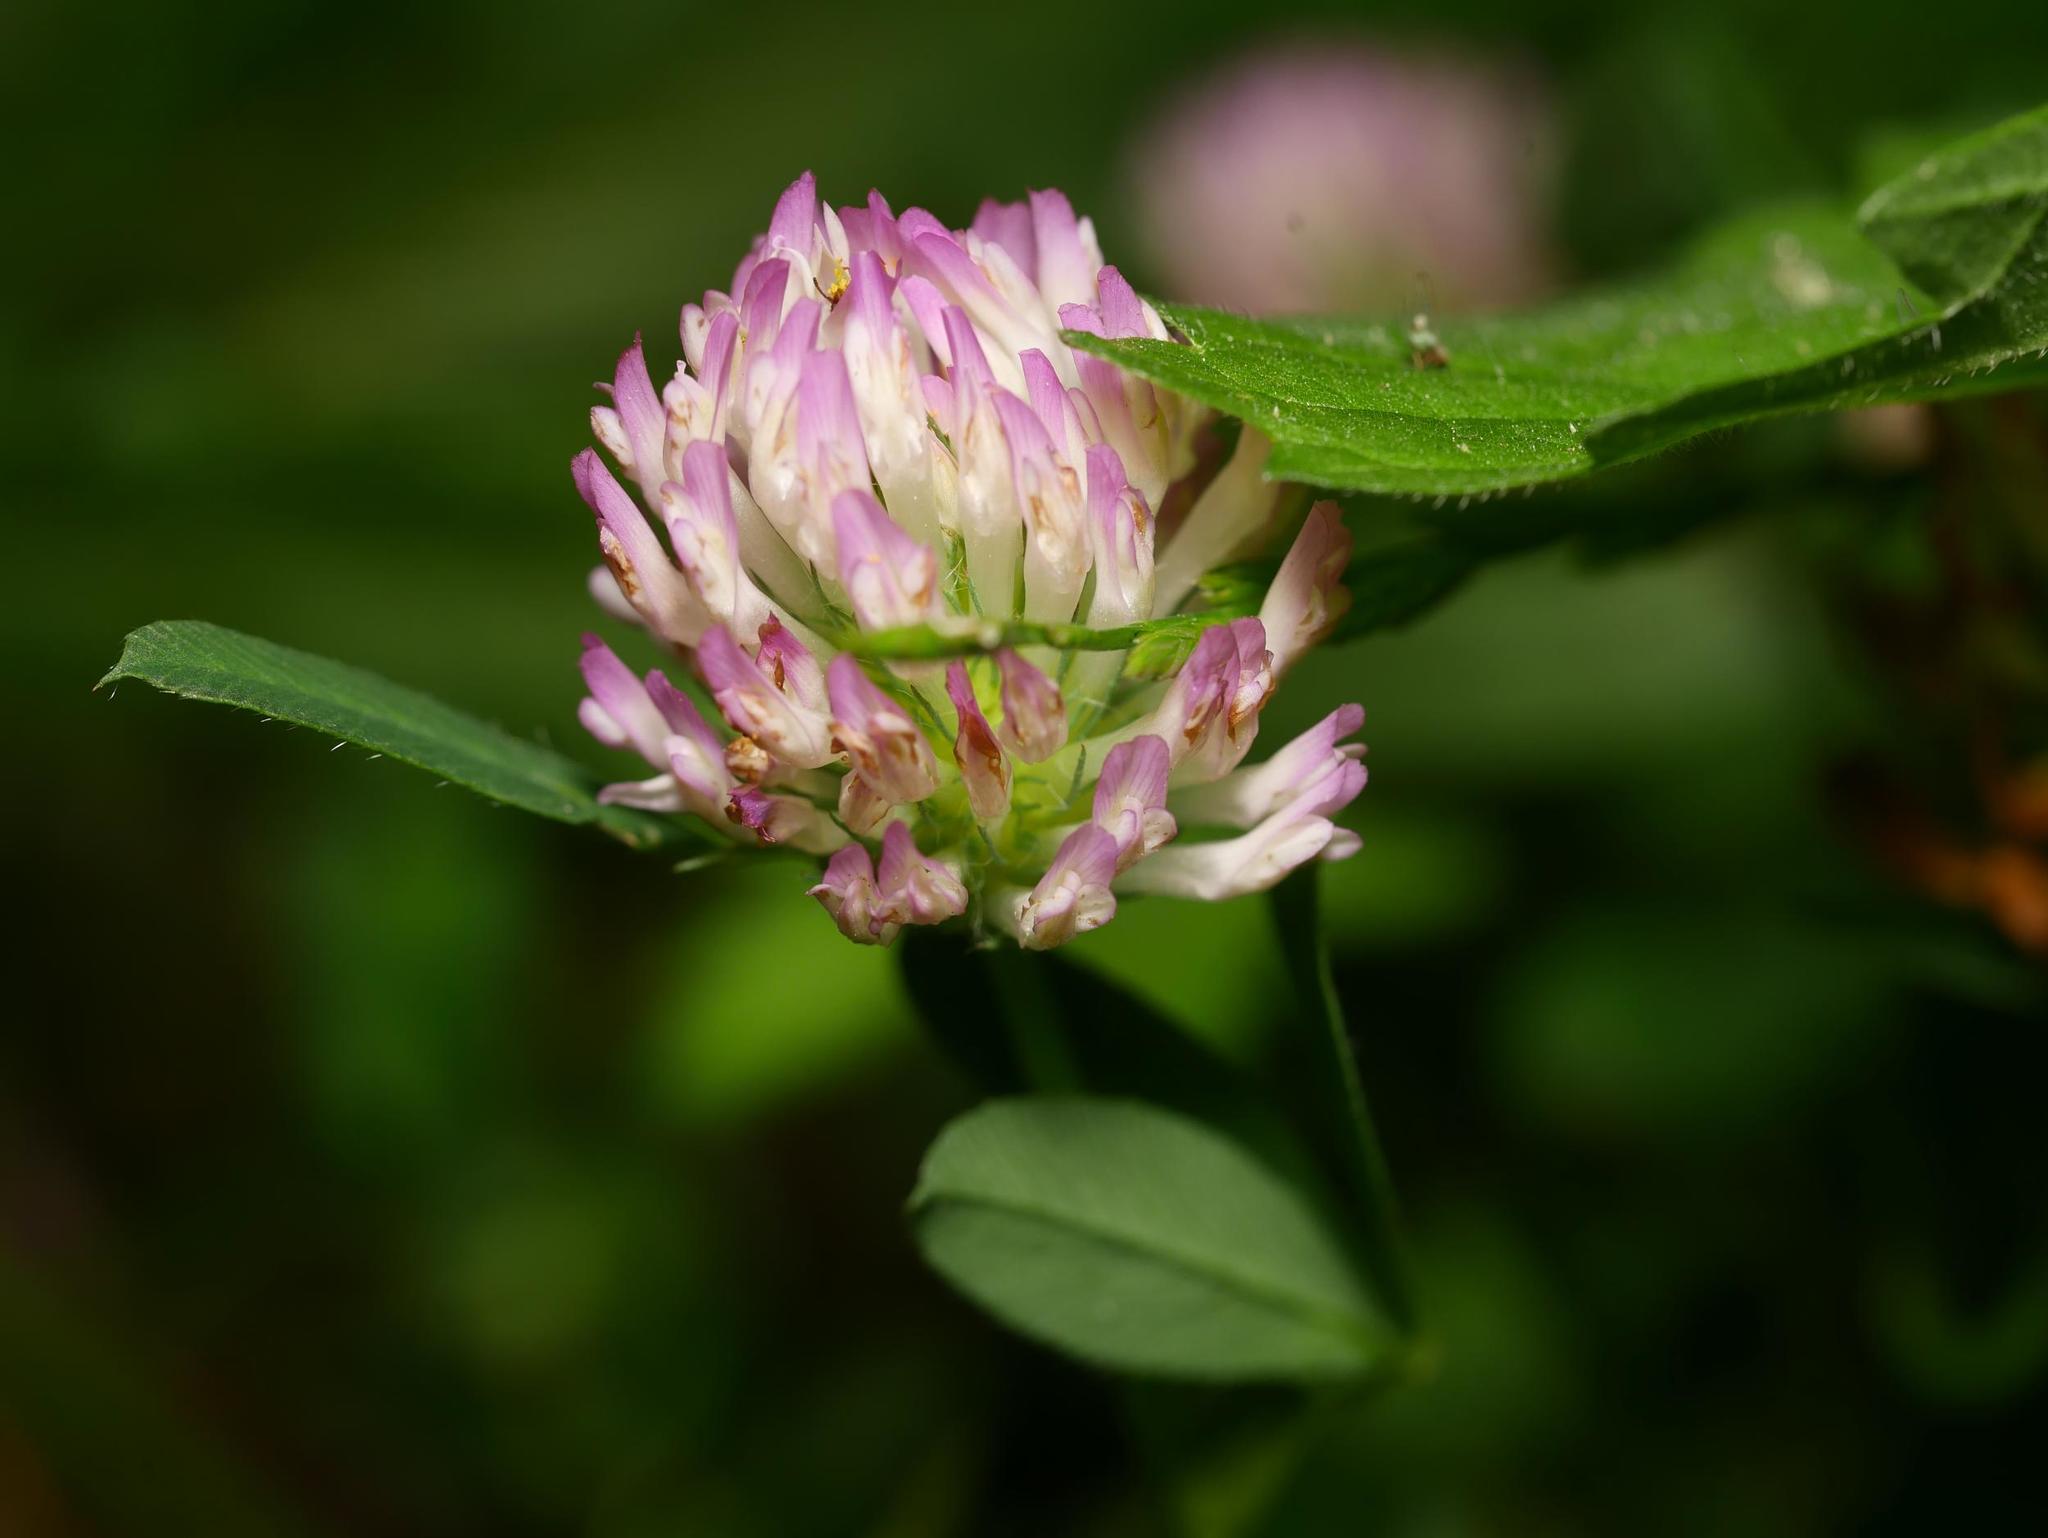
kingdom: Plantae
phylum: Tracheophyta
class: Magnoliopsida
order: Fabales
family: Fabaceae
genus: Trifolium
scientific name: Trifolium pratense
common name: Red clover
